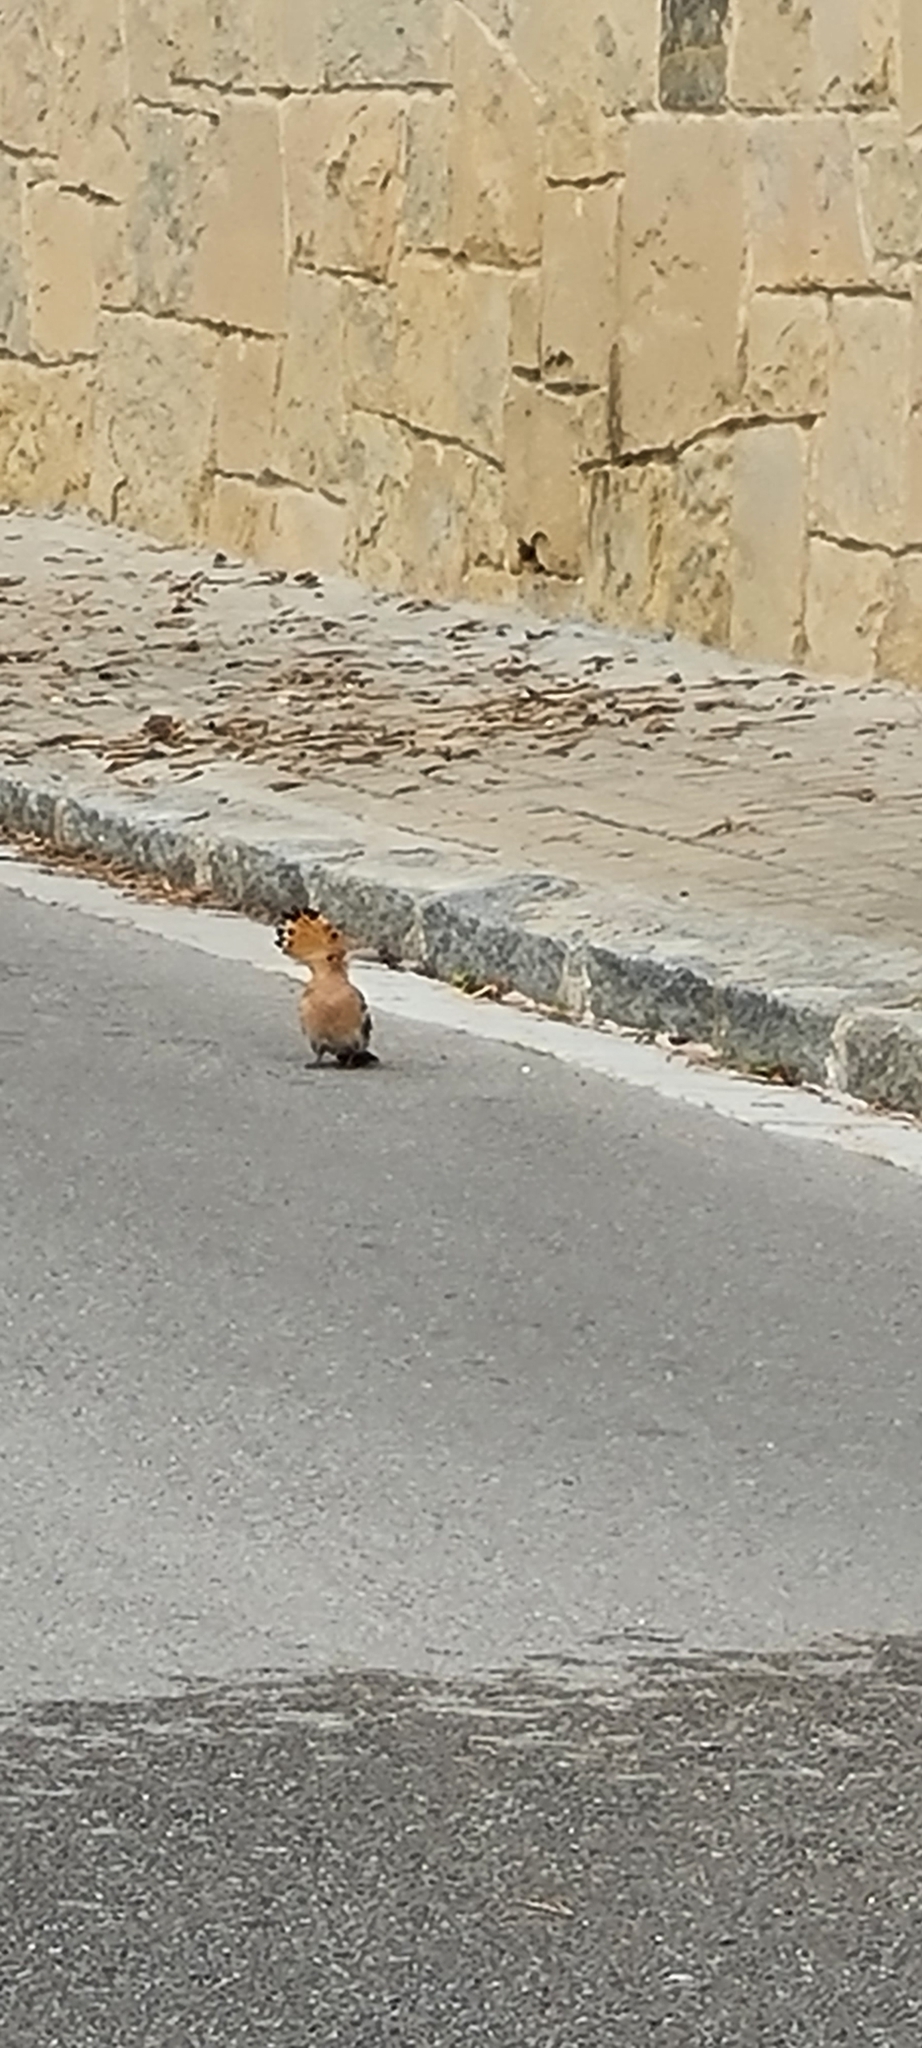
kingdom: Animalia
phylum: Chordata
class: Aves
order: Bucerotiformes
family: Upupidae
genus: Upupa
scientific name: Upupa epops
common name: Eurasian hoopoe
